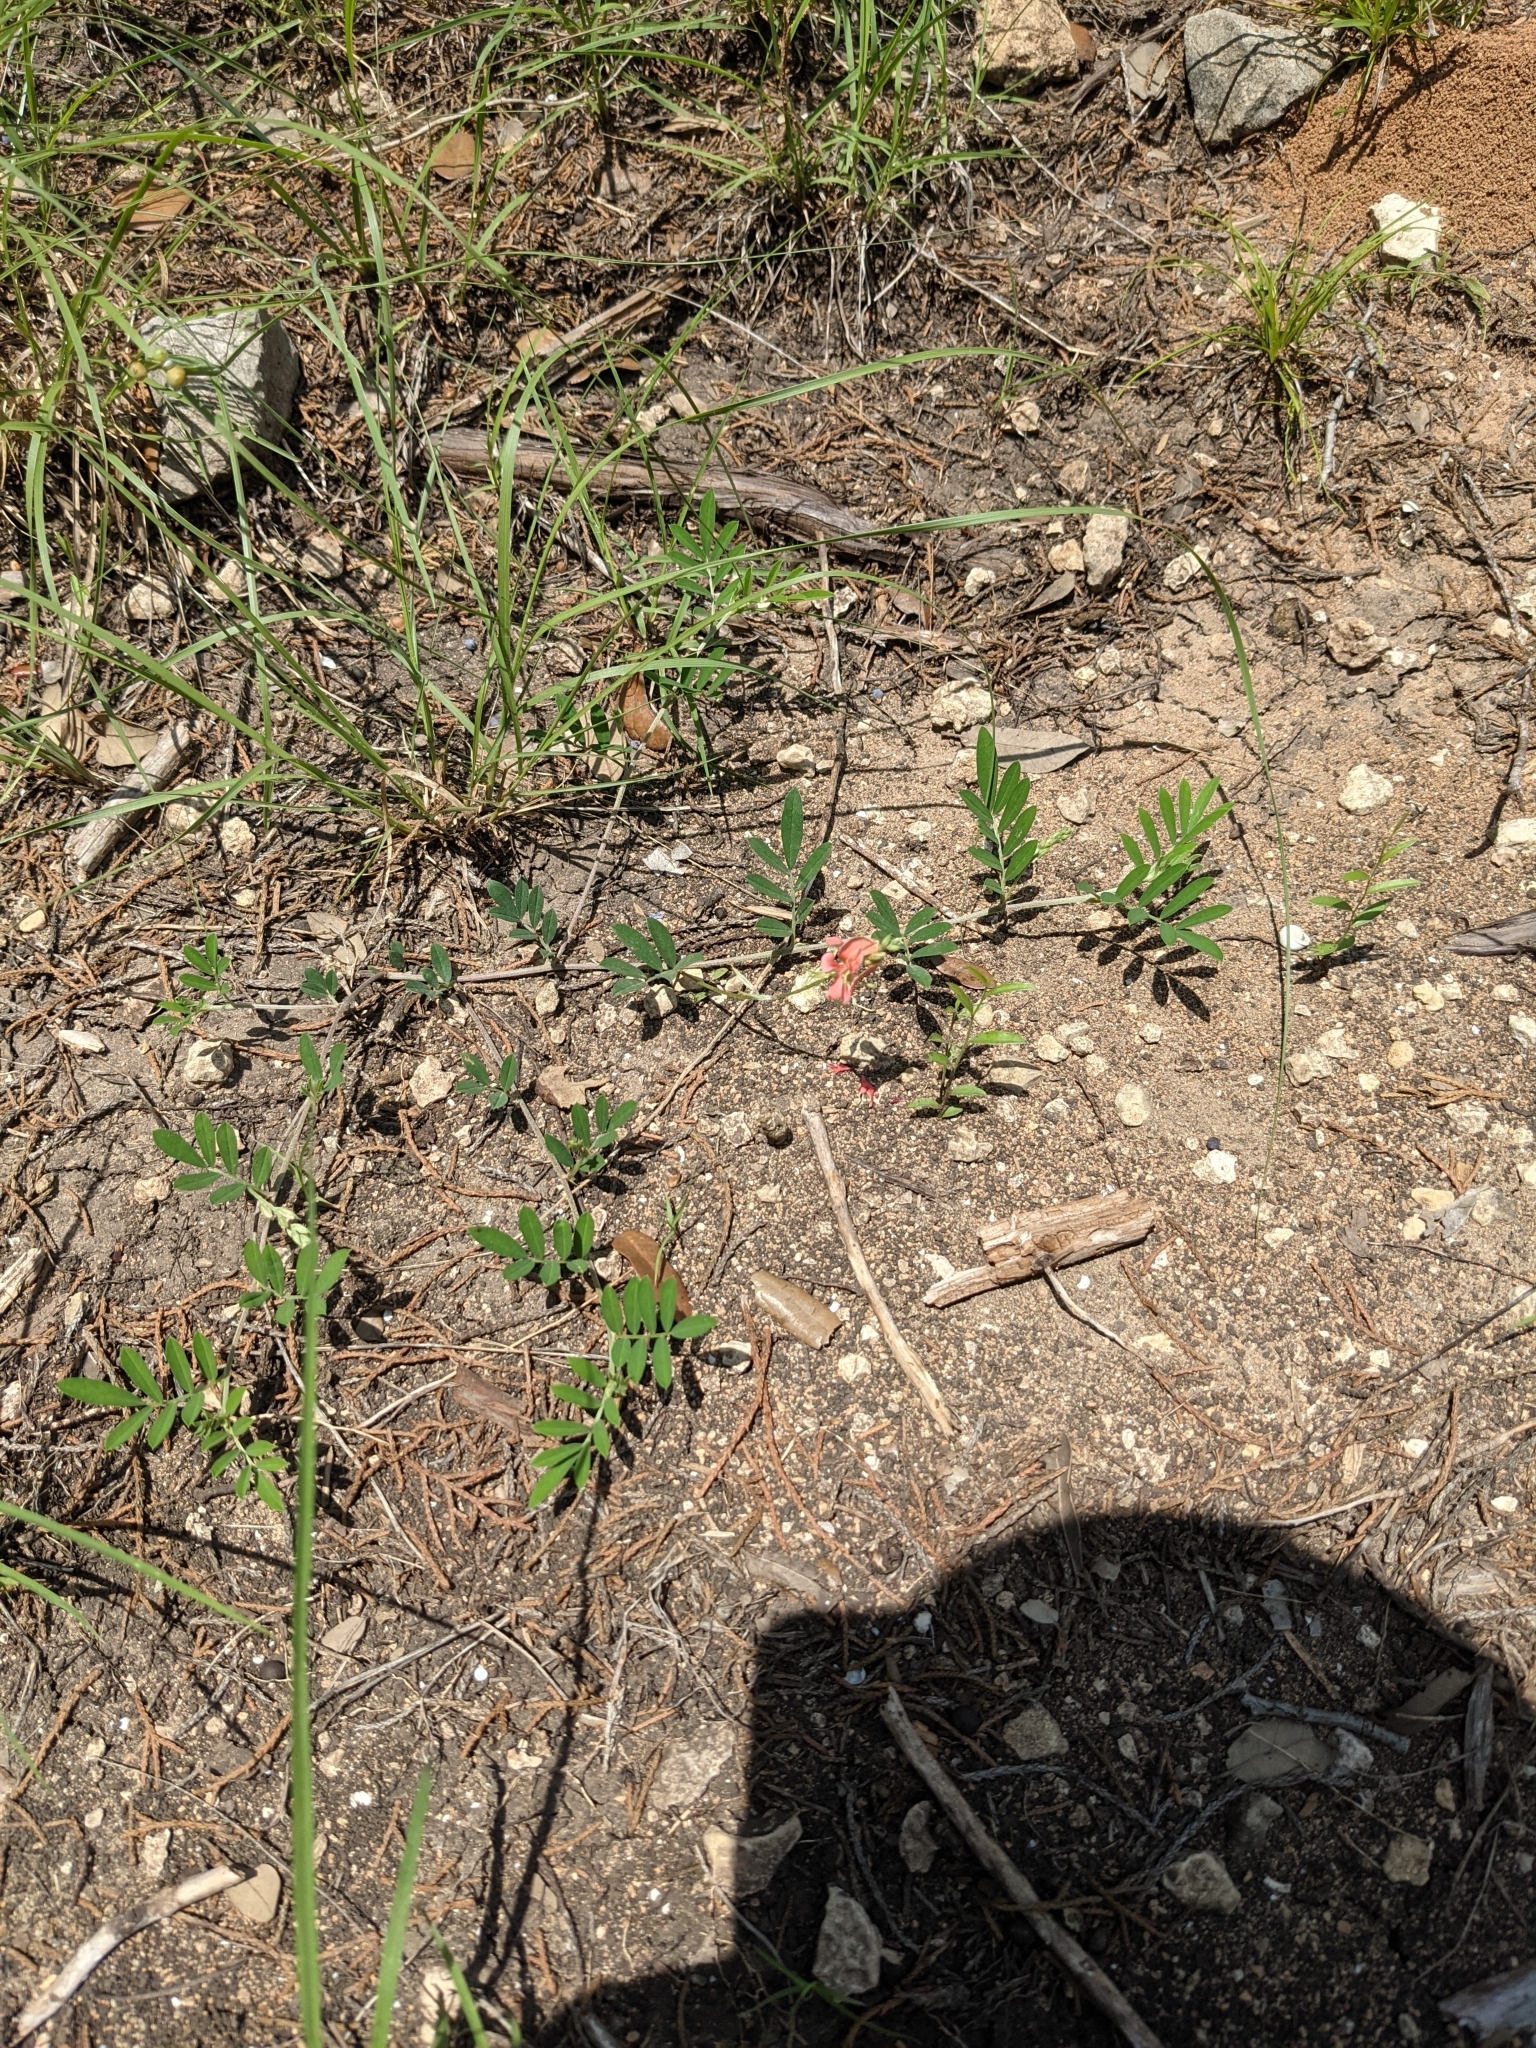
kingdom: Plantae
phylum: Tracheophyta
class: Magnoliopsida
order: Fabales
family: Fabaceae
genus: Indigofera
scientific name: Indigofera miniata
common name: Coast indigo
